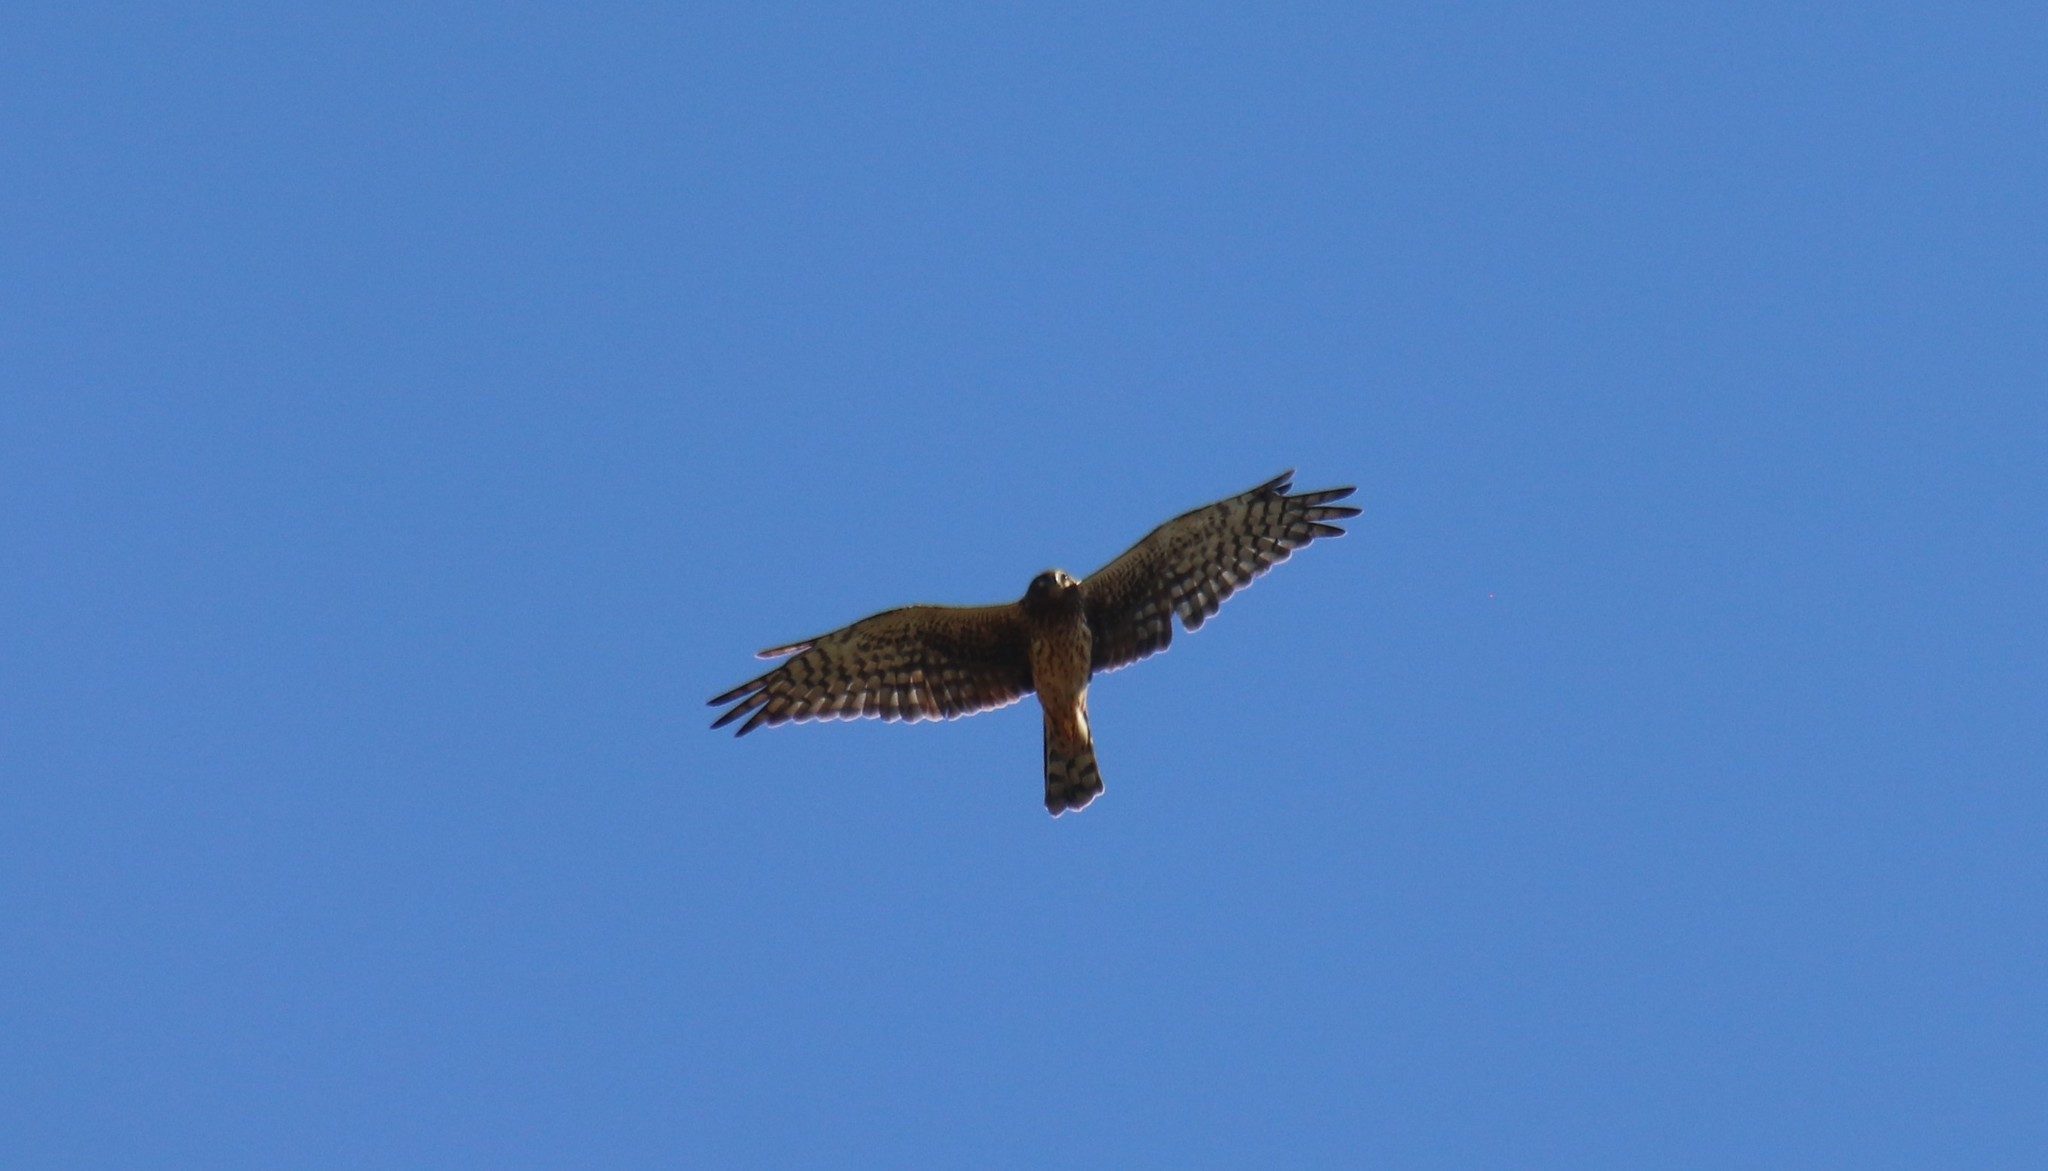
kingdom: Animalia
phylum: Chordata
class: Aves
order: Accipitriformes
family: Accipitridae
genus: Circus
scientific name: Circus cyaneus
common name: Hen harrier
